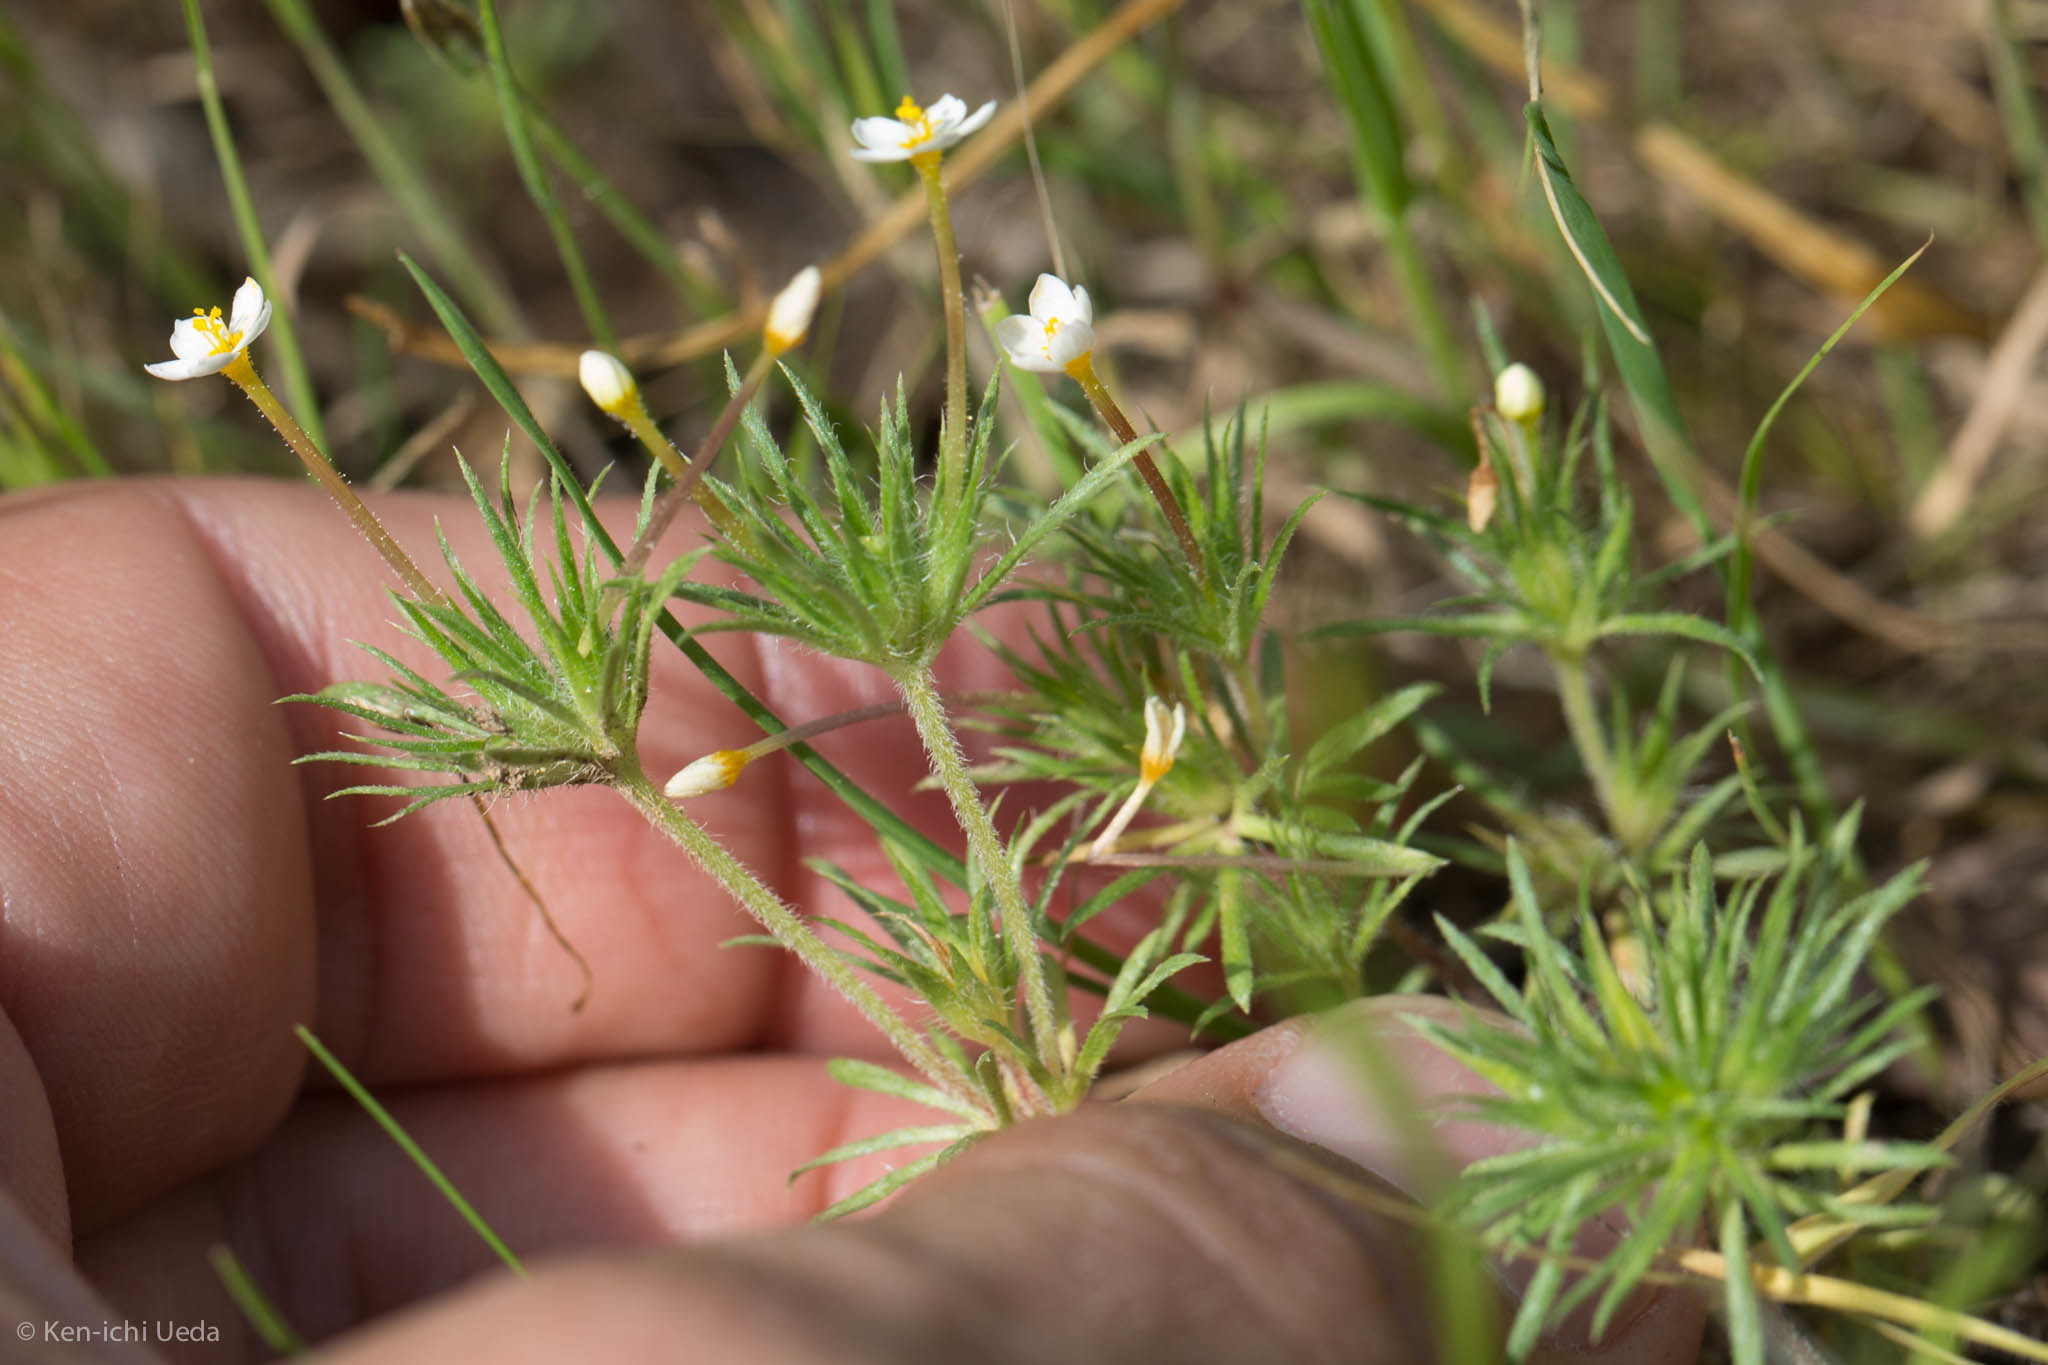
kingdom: Plantae
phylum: Tracheophyta
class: Magnoliopsida
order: Ericales
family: Polemoniaceae
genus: Leptosiphon
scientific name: Leptosiphon bicolor
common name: True babystars
